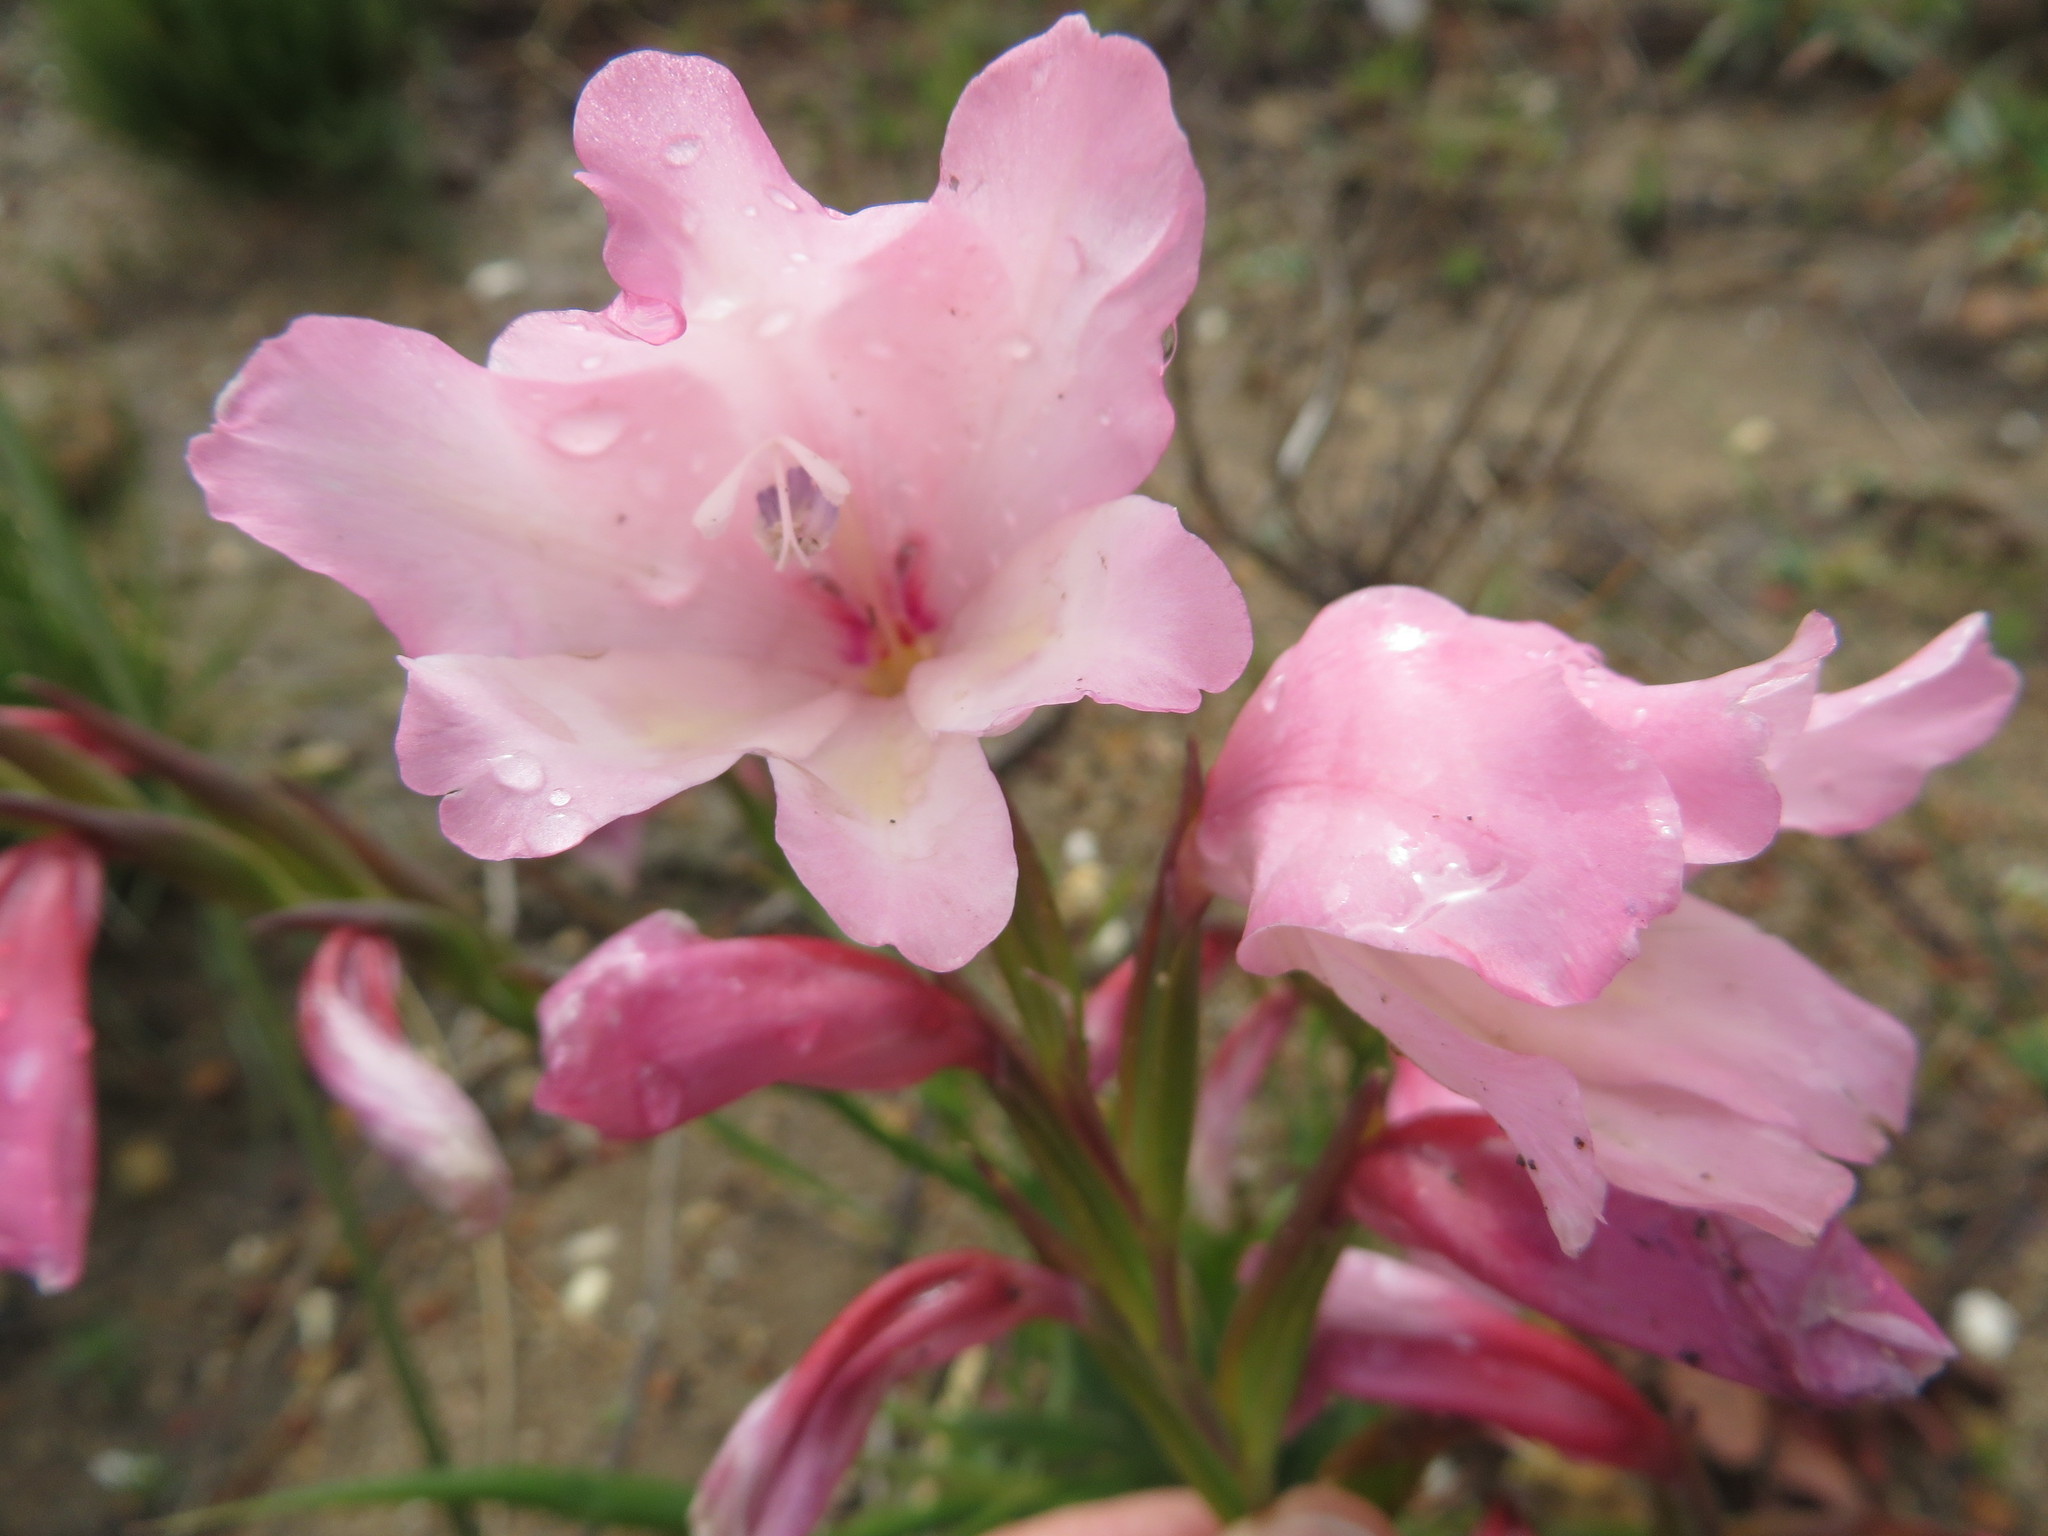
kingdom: Plantae
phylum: Tracheophyta
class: Liliopsida
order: Asparagales
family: Iridaceae
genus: Gladiolus
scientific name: Gladiolus carneus
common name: Painted-lady
